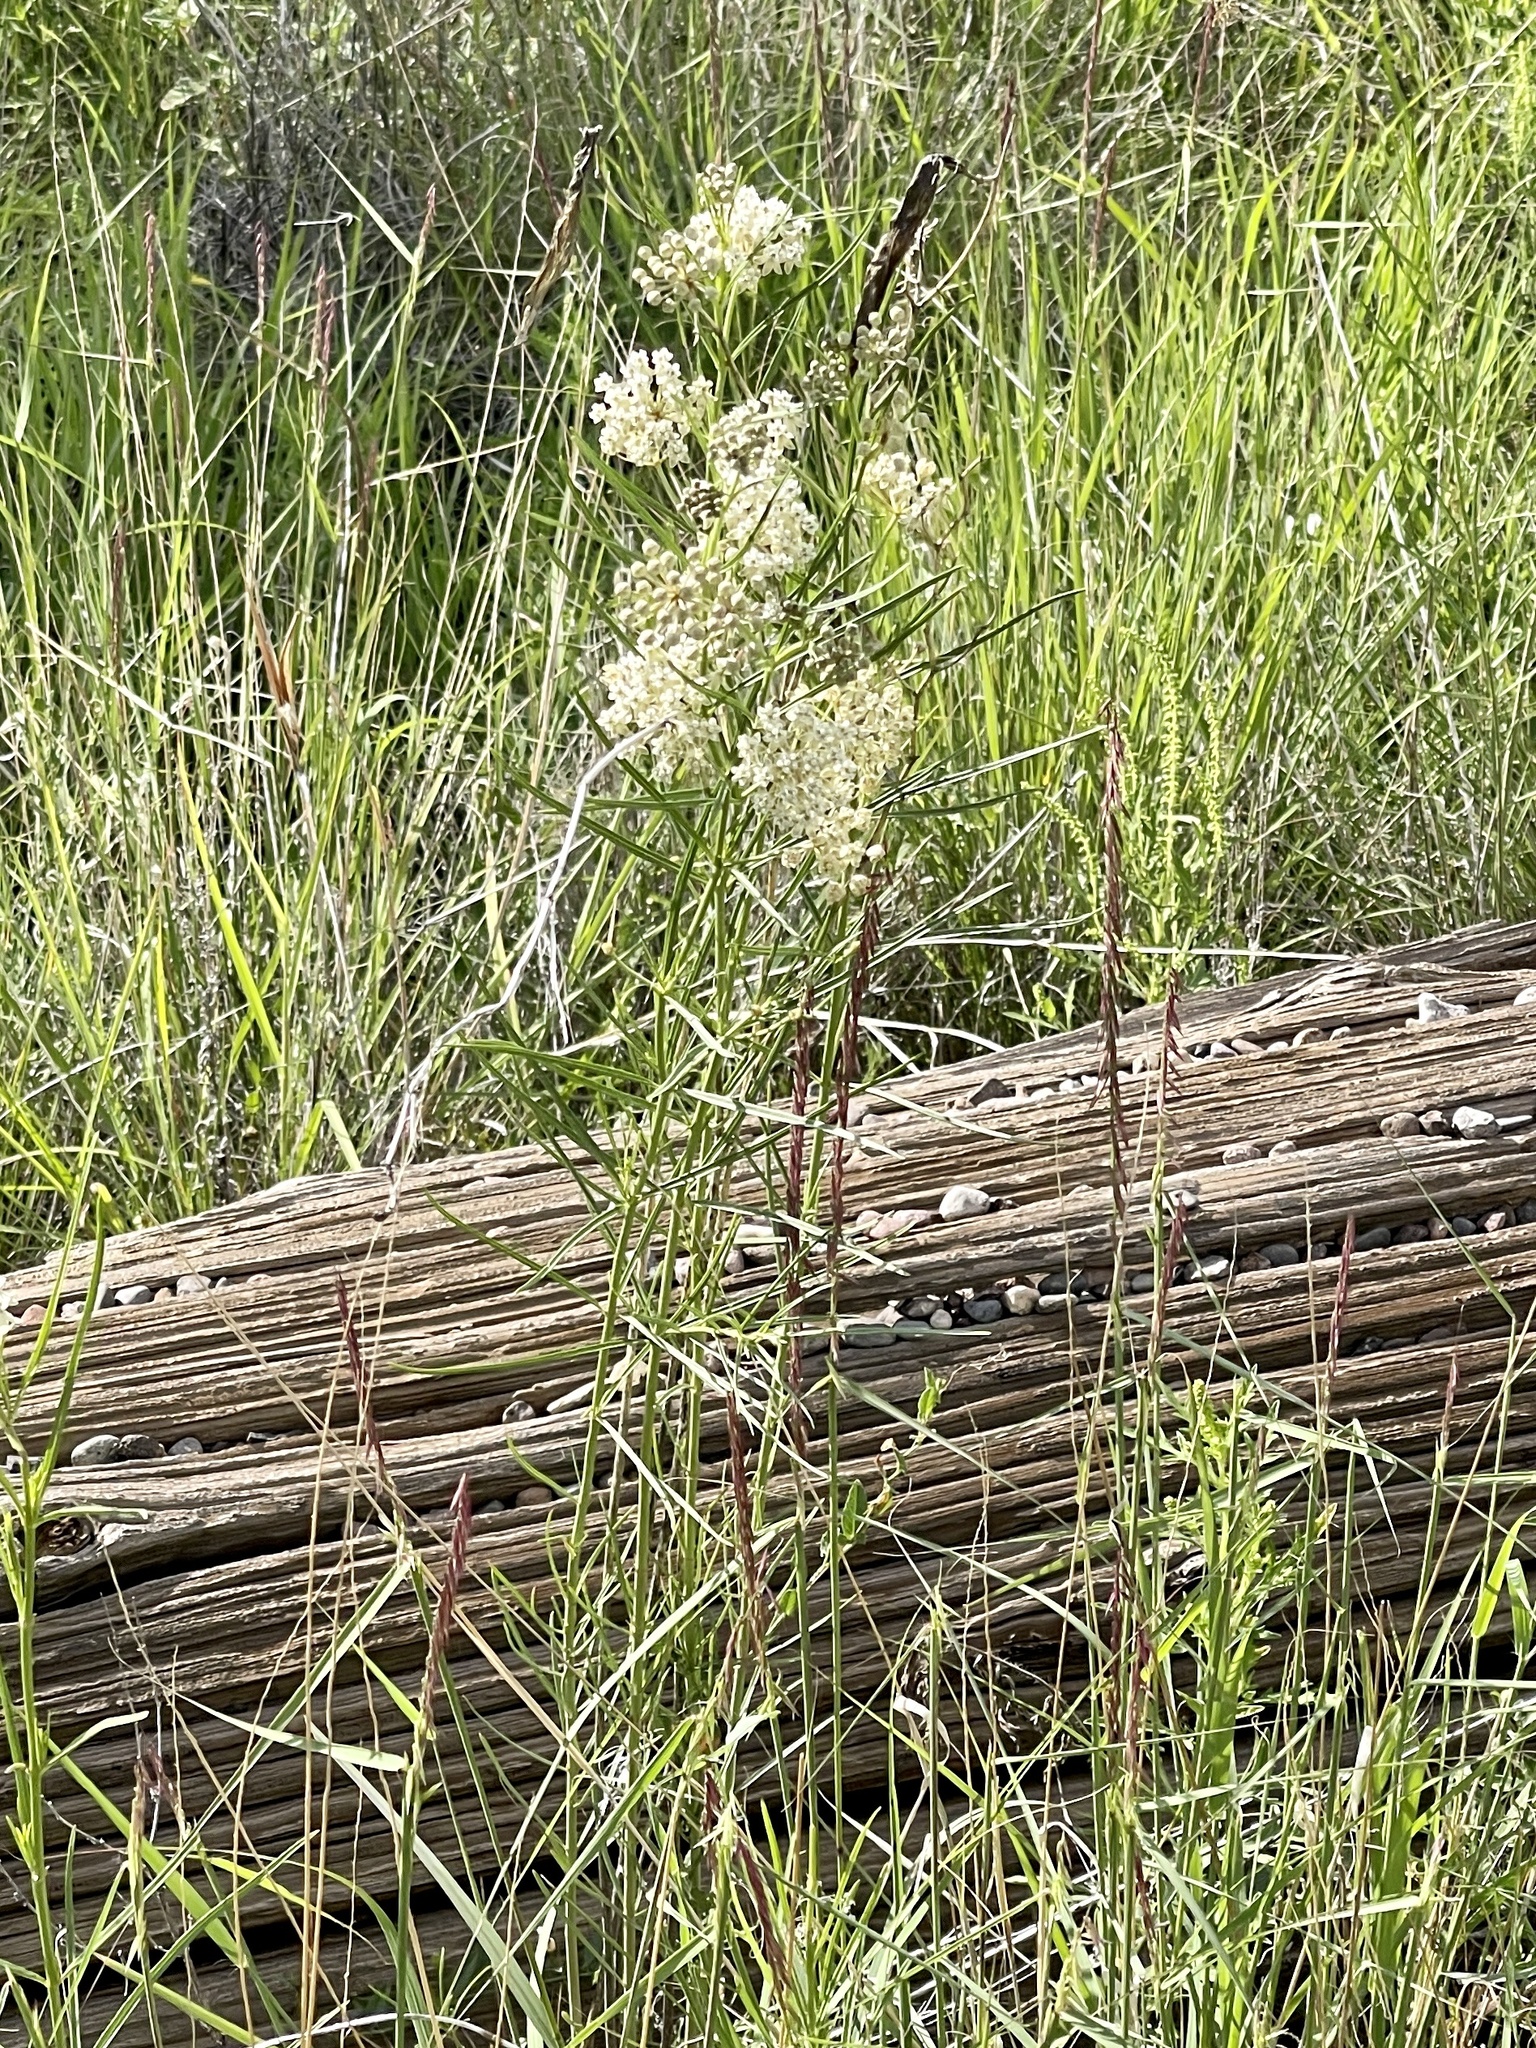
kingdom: Plantae
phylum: Tracheophyta
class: Magnoliopsida
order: Gentianales
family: Apocynaceae
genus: Asclepias
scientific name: Asclepias subverticillata
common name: Horsetail milkweed
